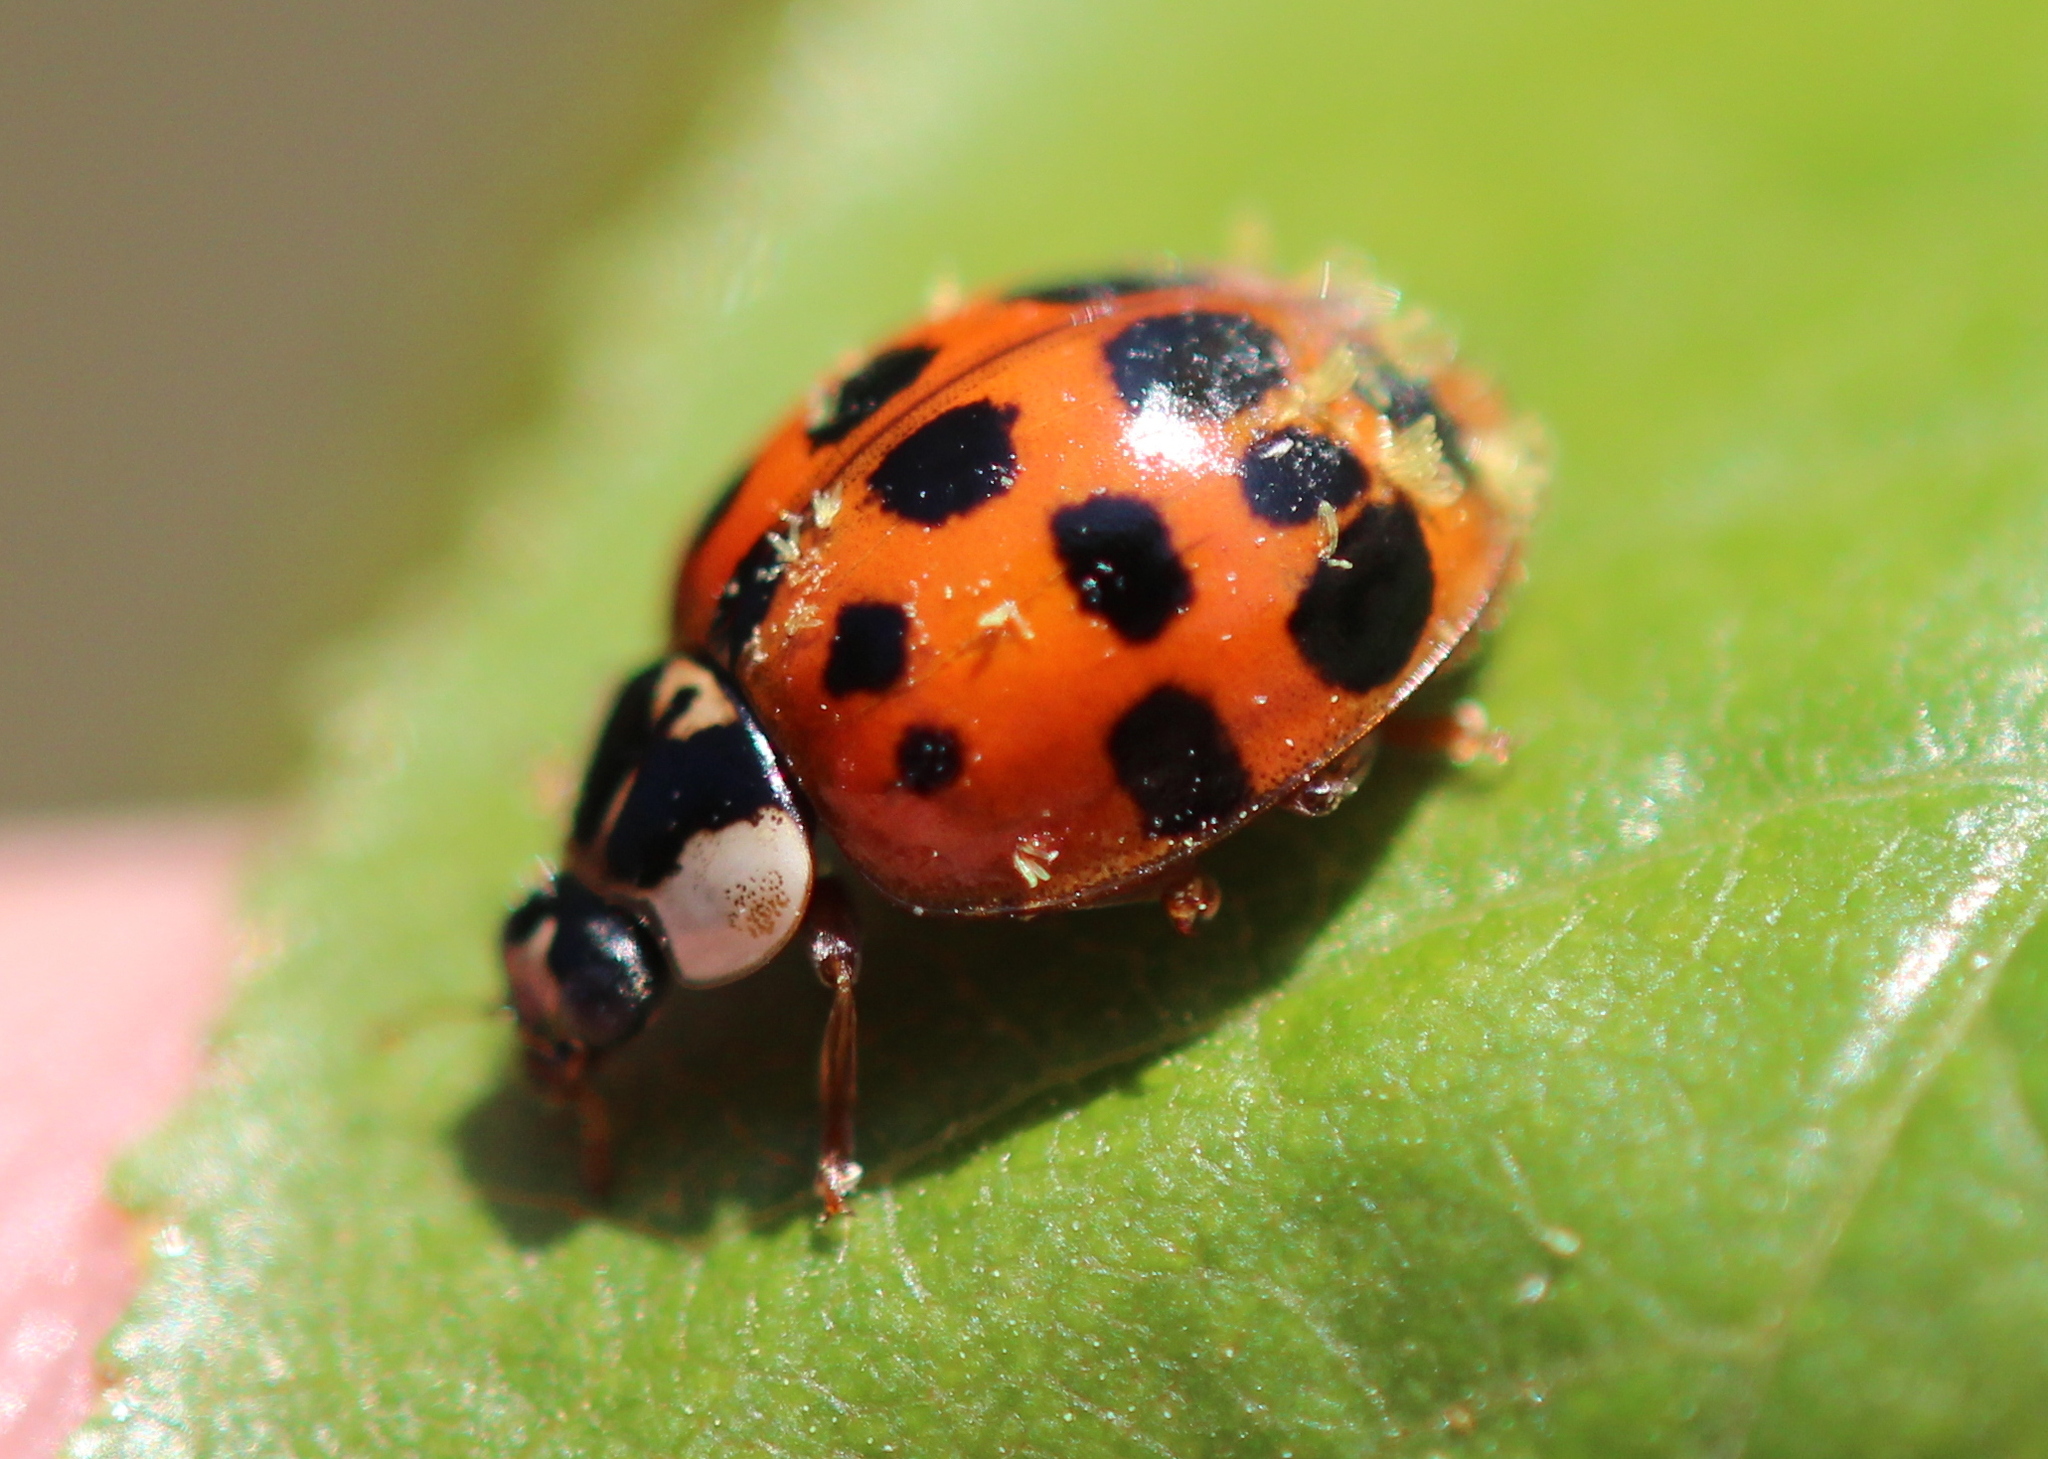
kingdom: Fungi
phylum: Ascomycota
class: Laboulbeniomycetes
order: Laboulbeniales
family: Laboulbeniaceae
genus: Hesperomyces
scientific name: Hesperomyces harmoniae
